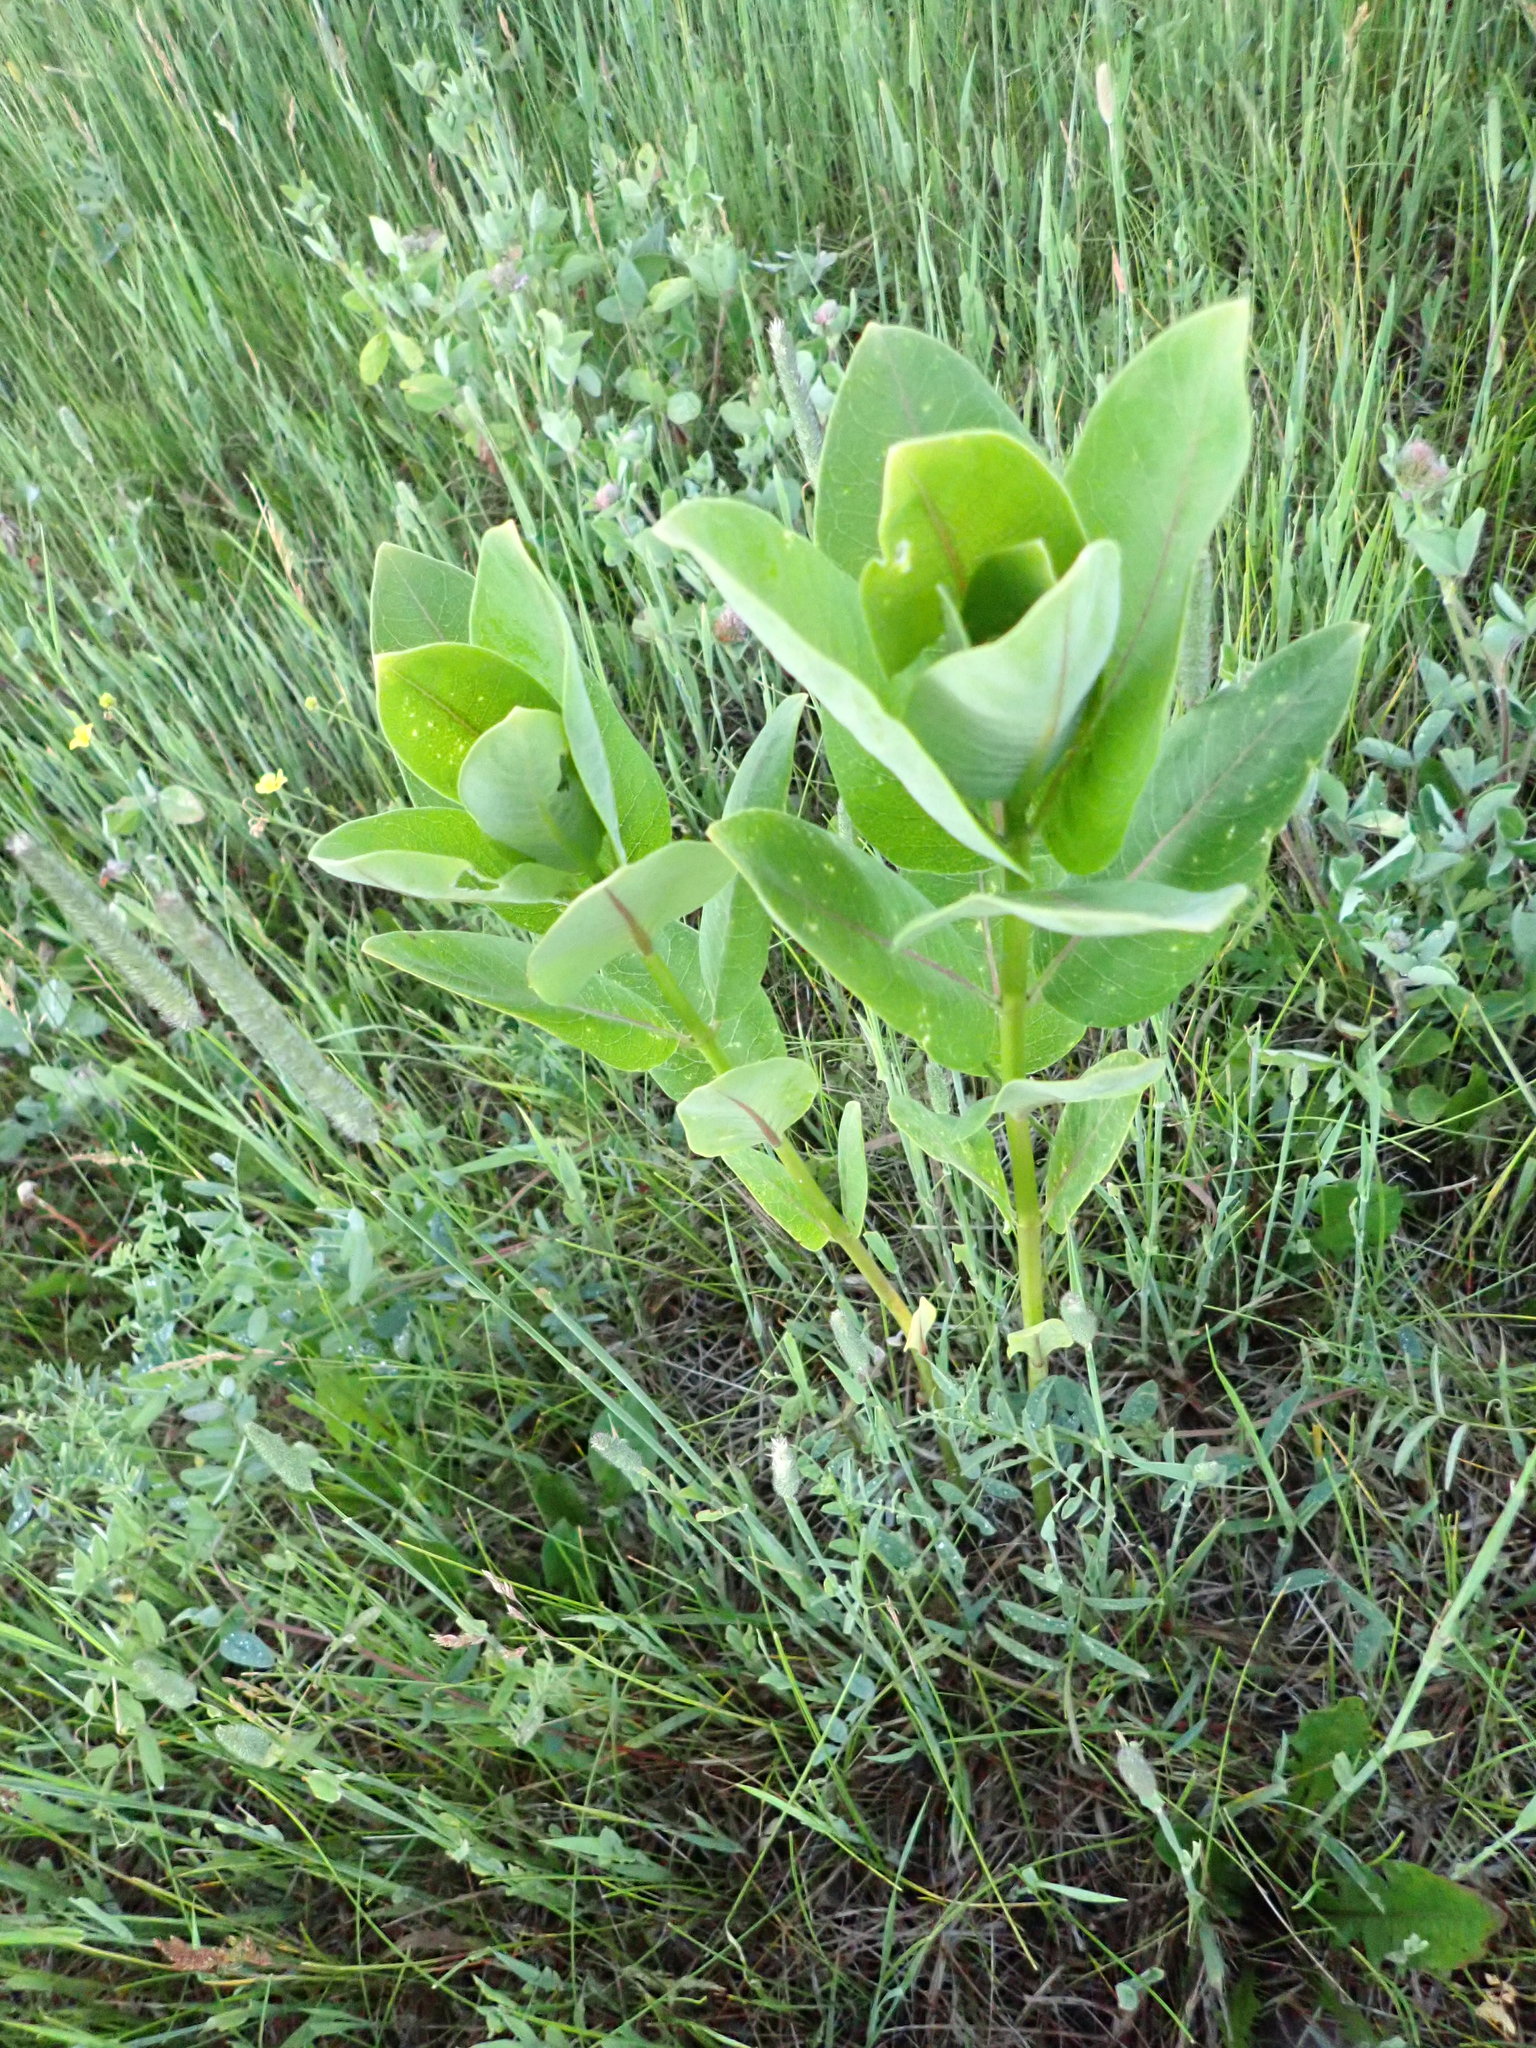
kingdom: Plantae
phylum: Tracheophyta
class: Magnoliopsida
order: Gentianales
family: Apocynaceae
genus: Asclepias
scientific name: Asclepias syriaca
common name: Common milkweed
